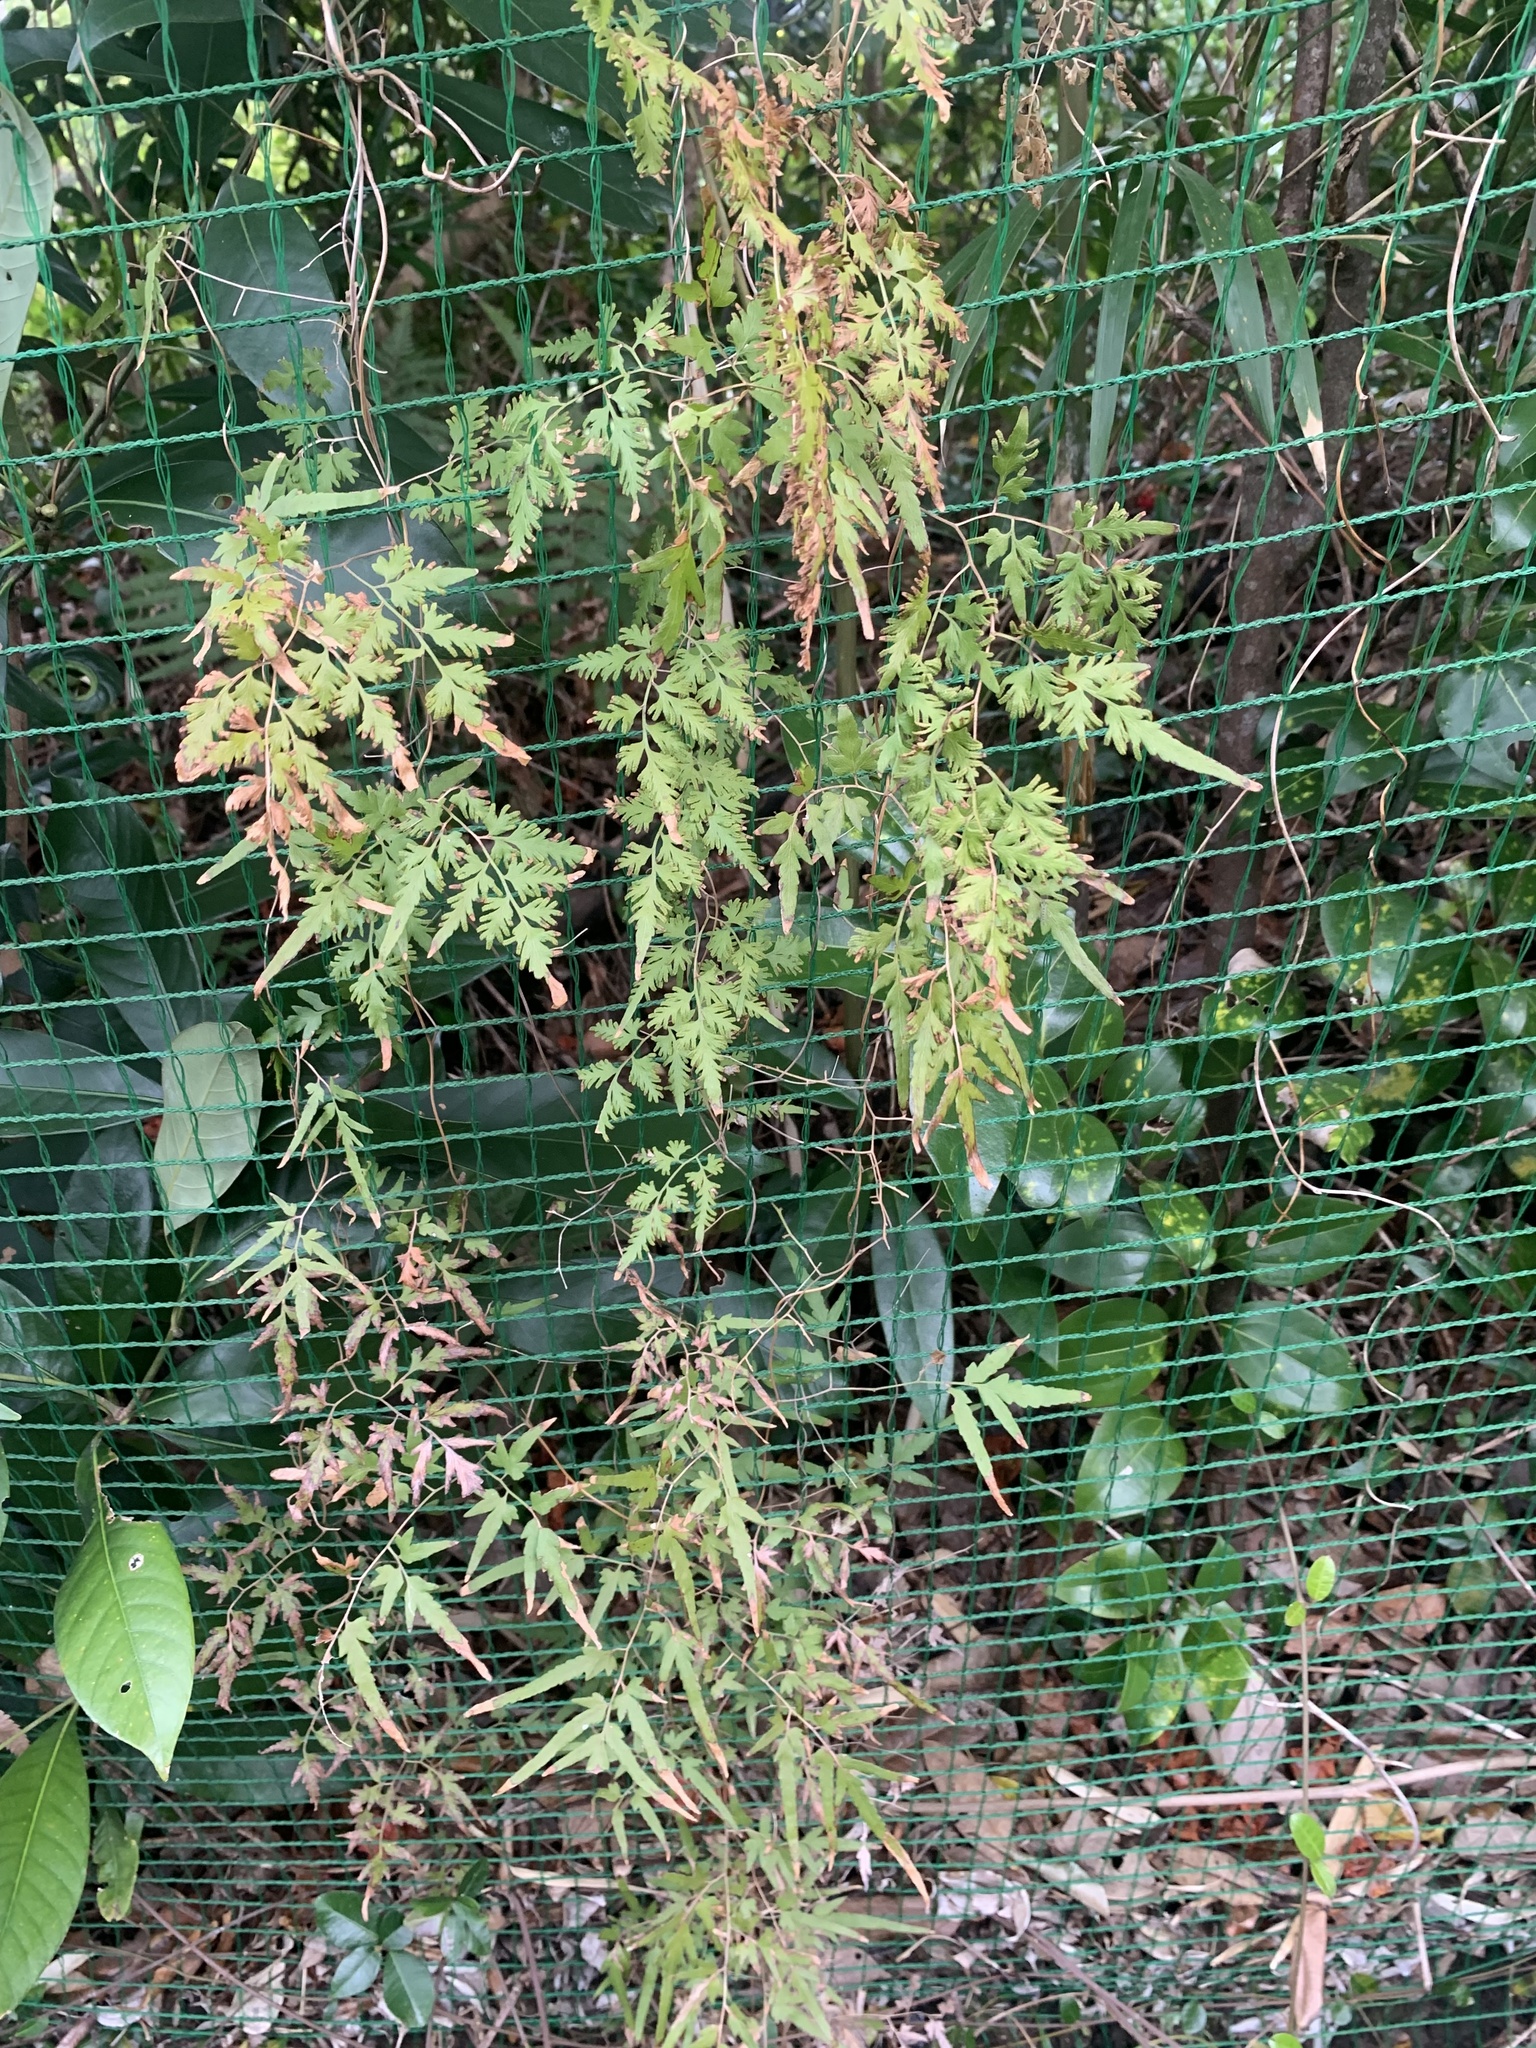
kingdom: Plantae
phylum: Tracheophyta
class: Polypodiopsida
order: Schizaeales
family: Lygodiaceae
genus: Lygodium
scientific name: Lygodium japonicum
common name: Japanese climbing fern
